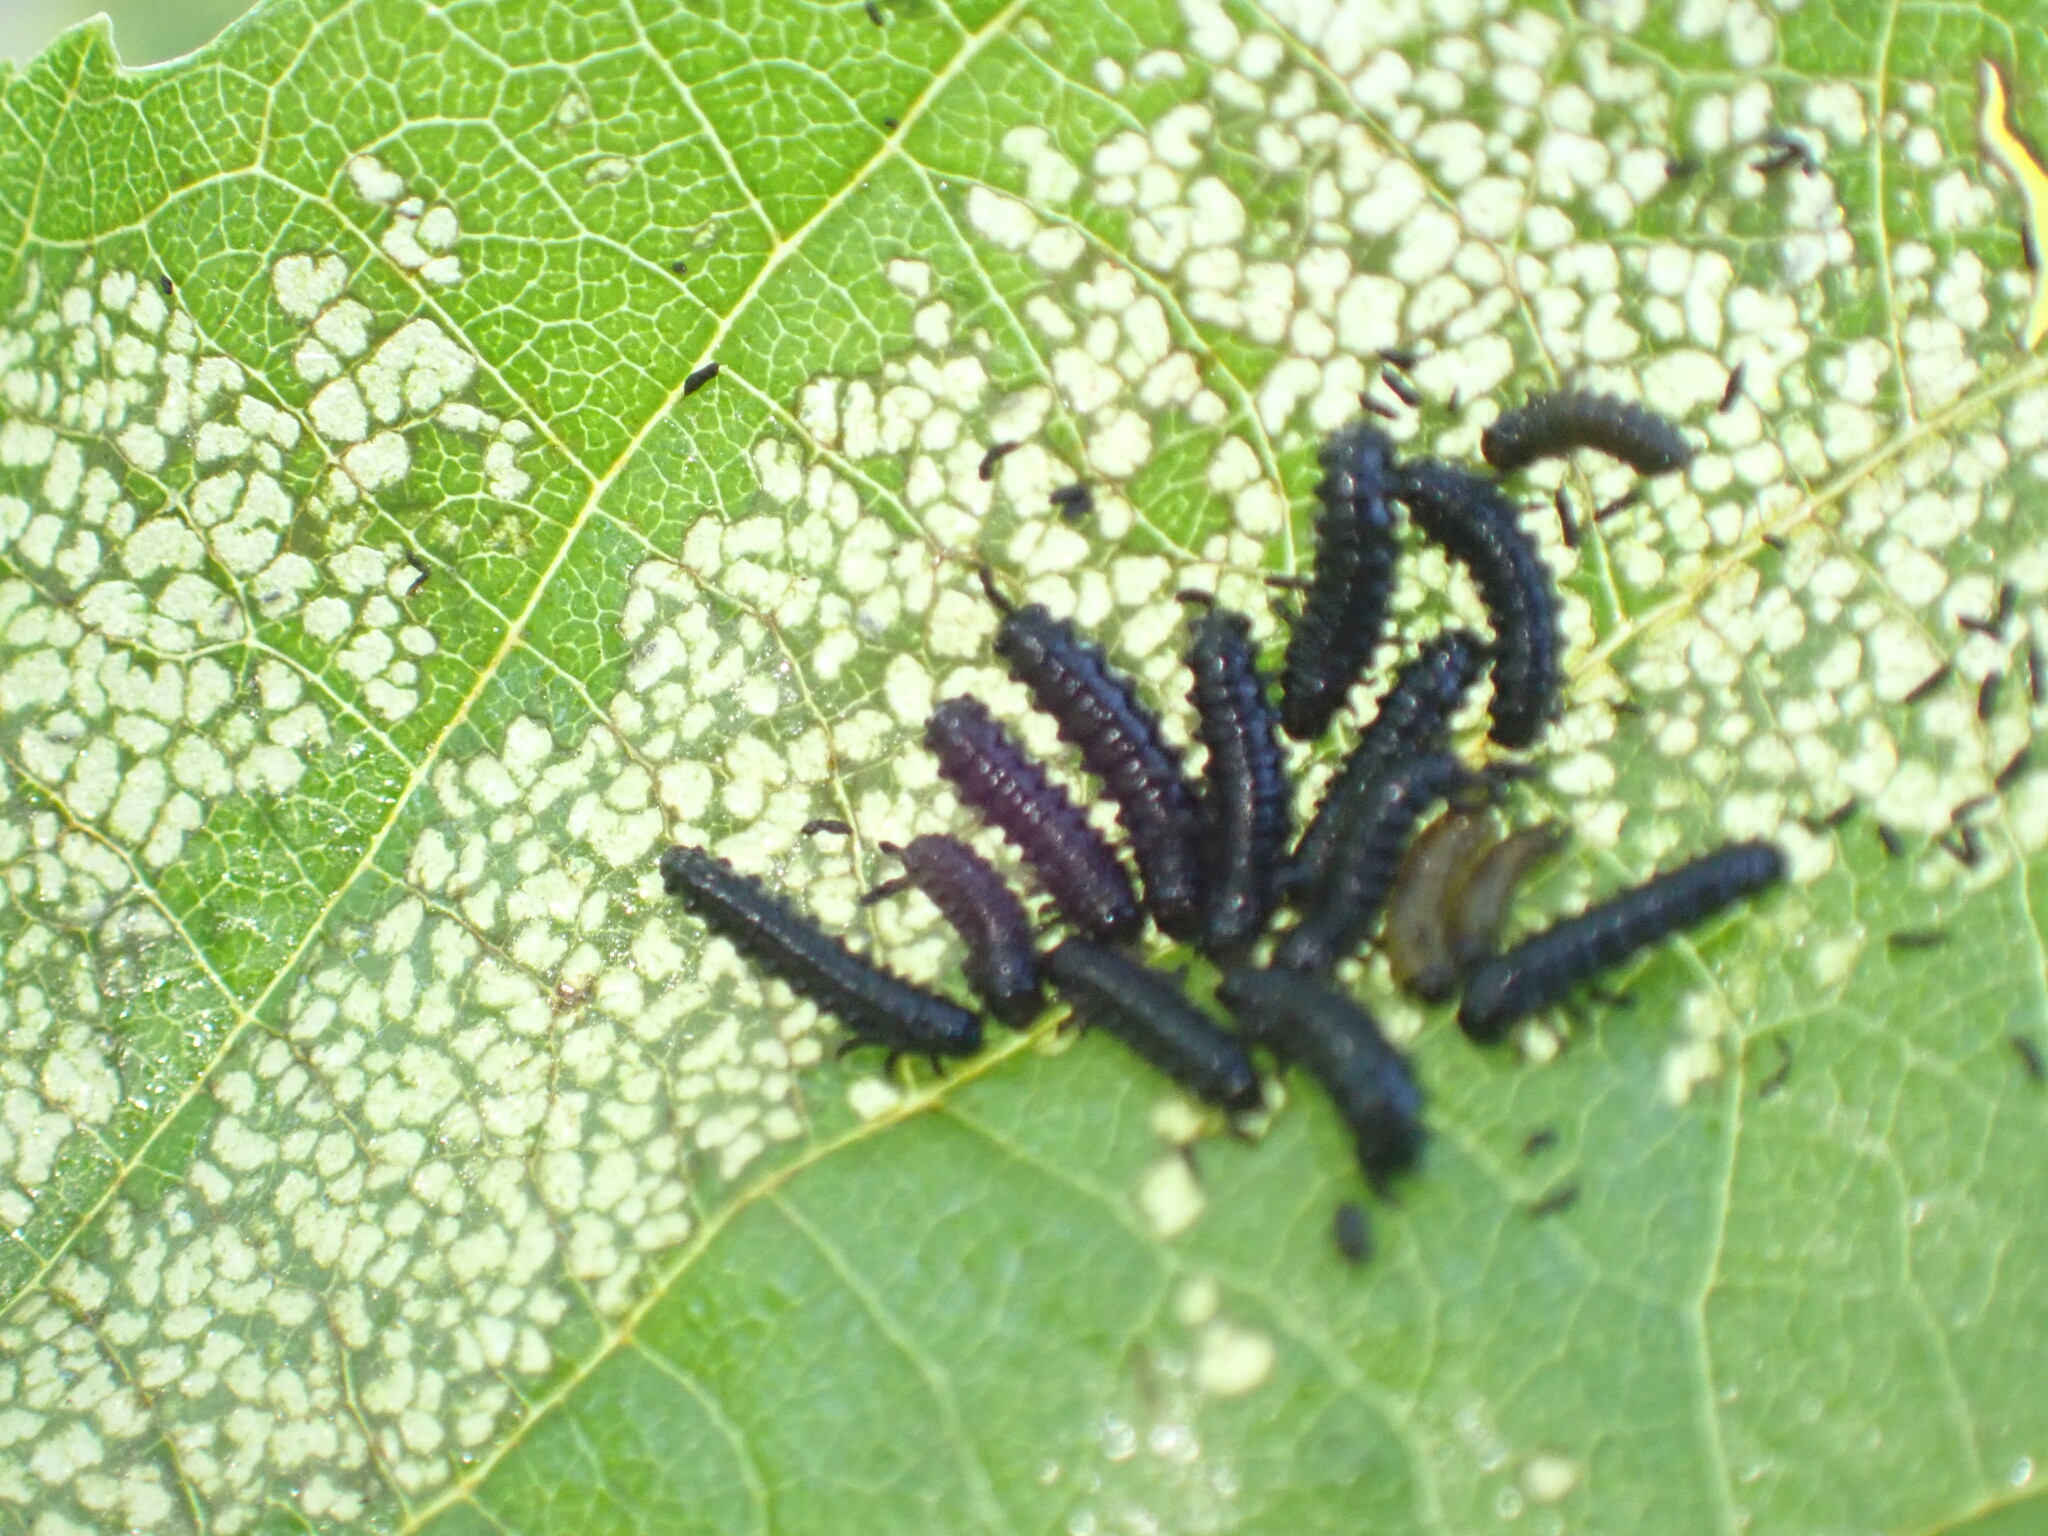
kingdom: Animalia
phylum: Arthropoda
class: Insecta
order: Coleoptera
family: Chrysomelidae
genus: Agelastica
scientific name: Agelastica alni
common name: Alder leaf beetle
